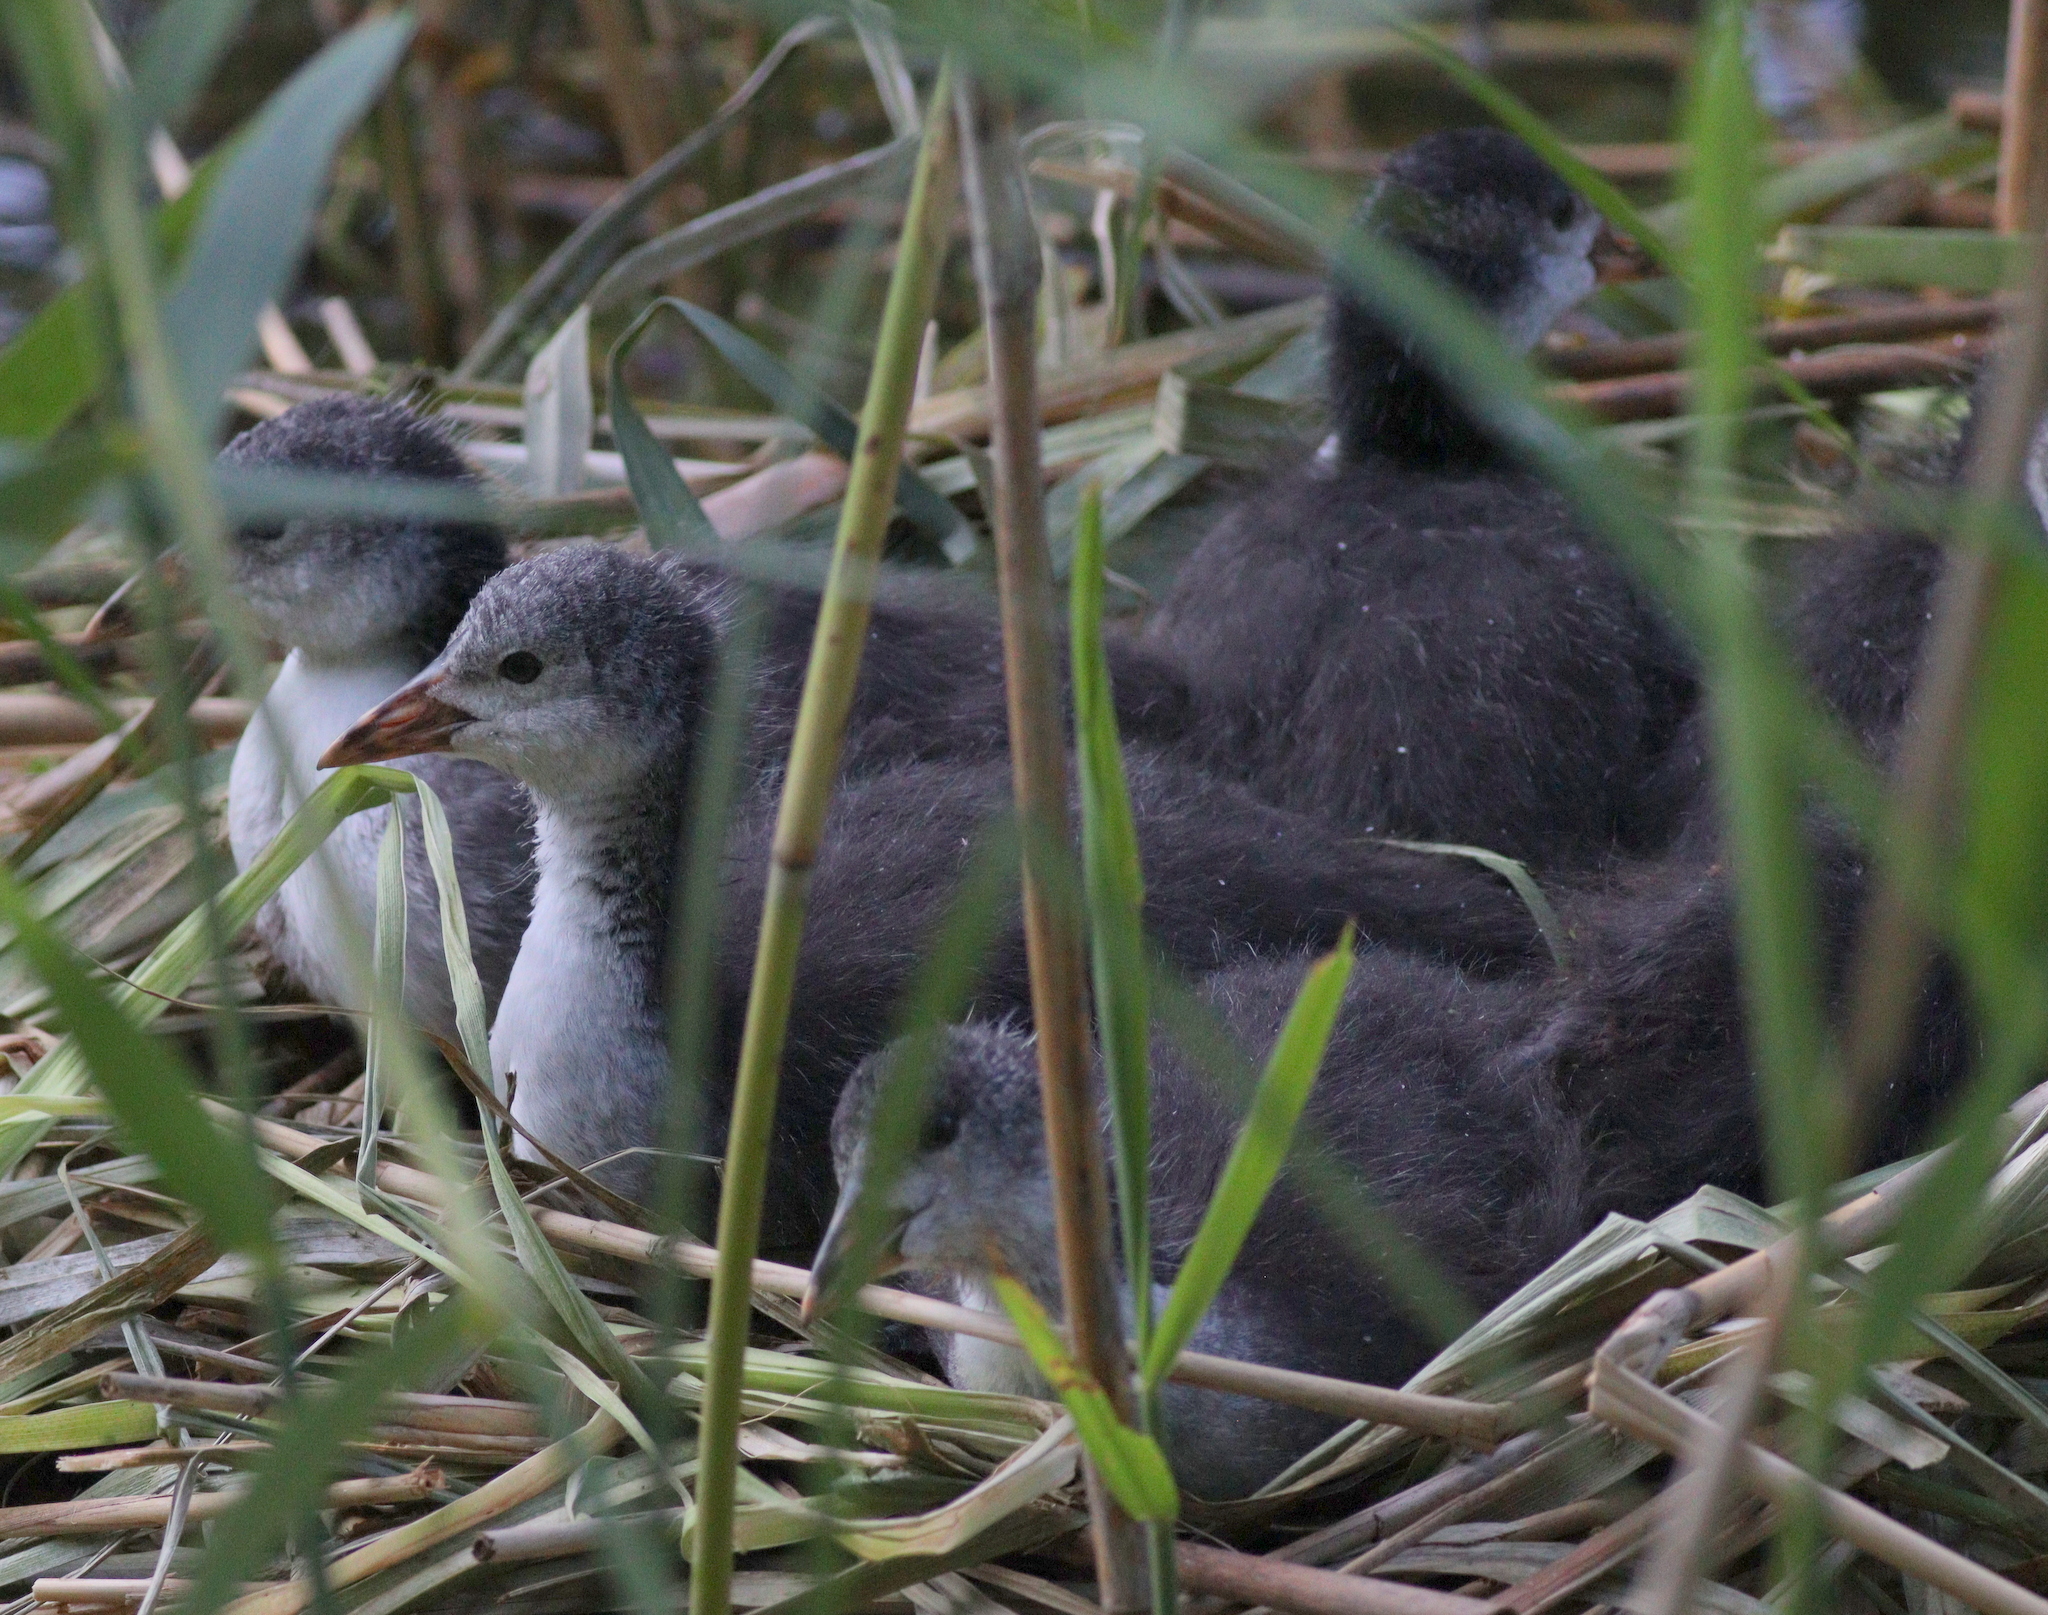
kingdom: Animalia
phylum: Chordata
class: Aves
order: Gruiformes
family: Rallidae
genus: Fulica
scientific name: Fulica atra
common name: Eurasian coot
